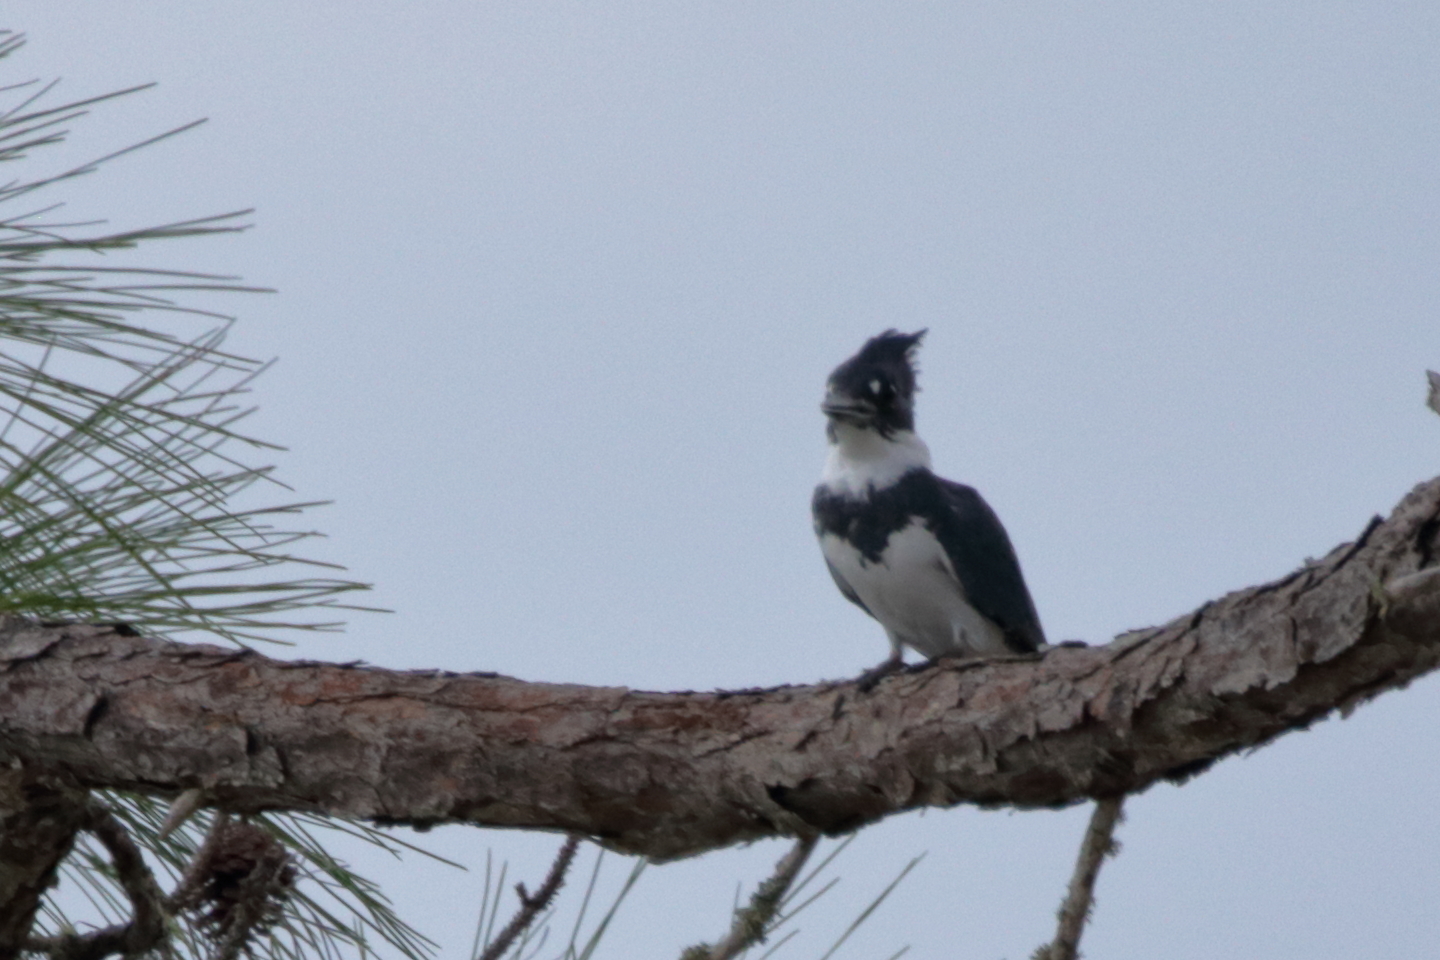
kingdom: Animalia
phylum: Chordata
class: Aves
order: Coraciiformes
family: Alcedinidae
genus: Megaceryle
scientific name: Megaceryle alcyon
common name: Belted kingfisher
